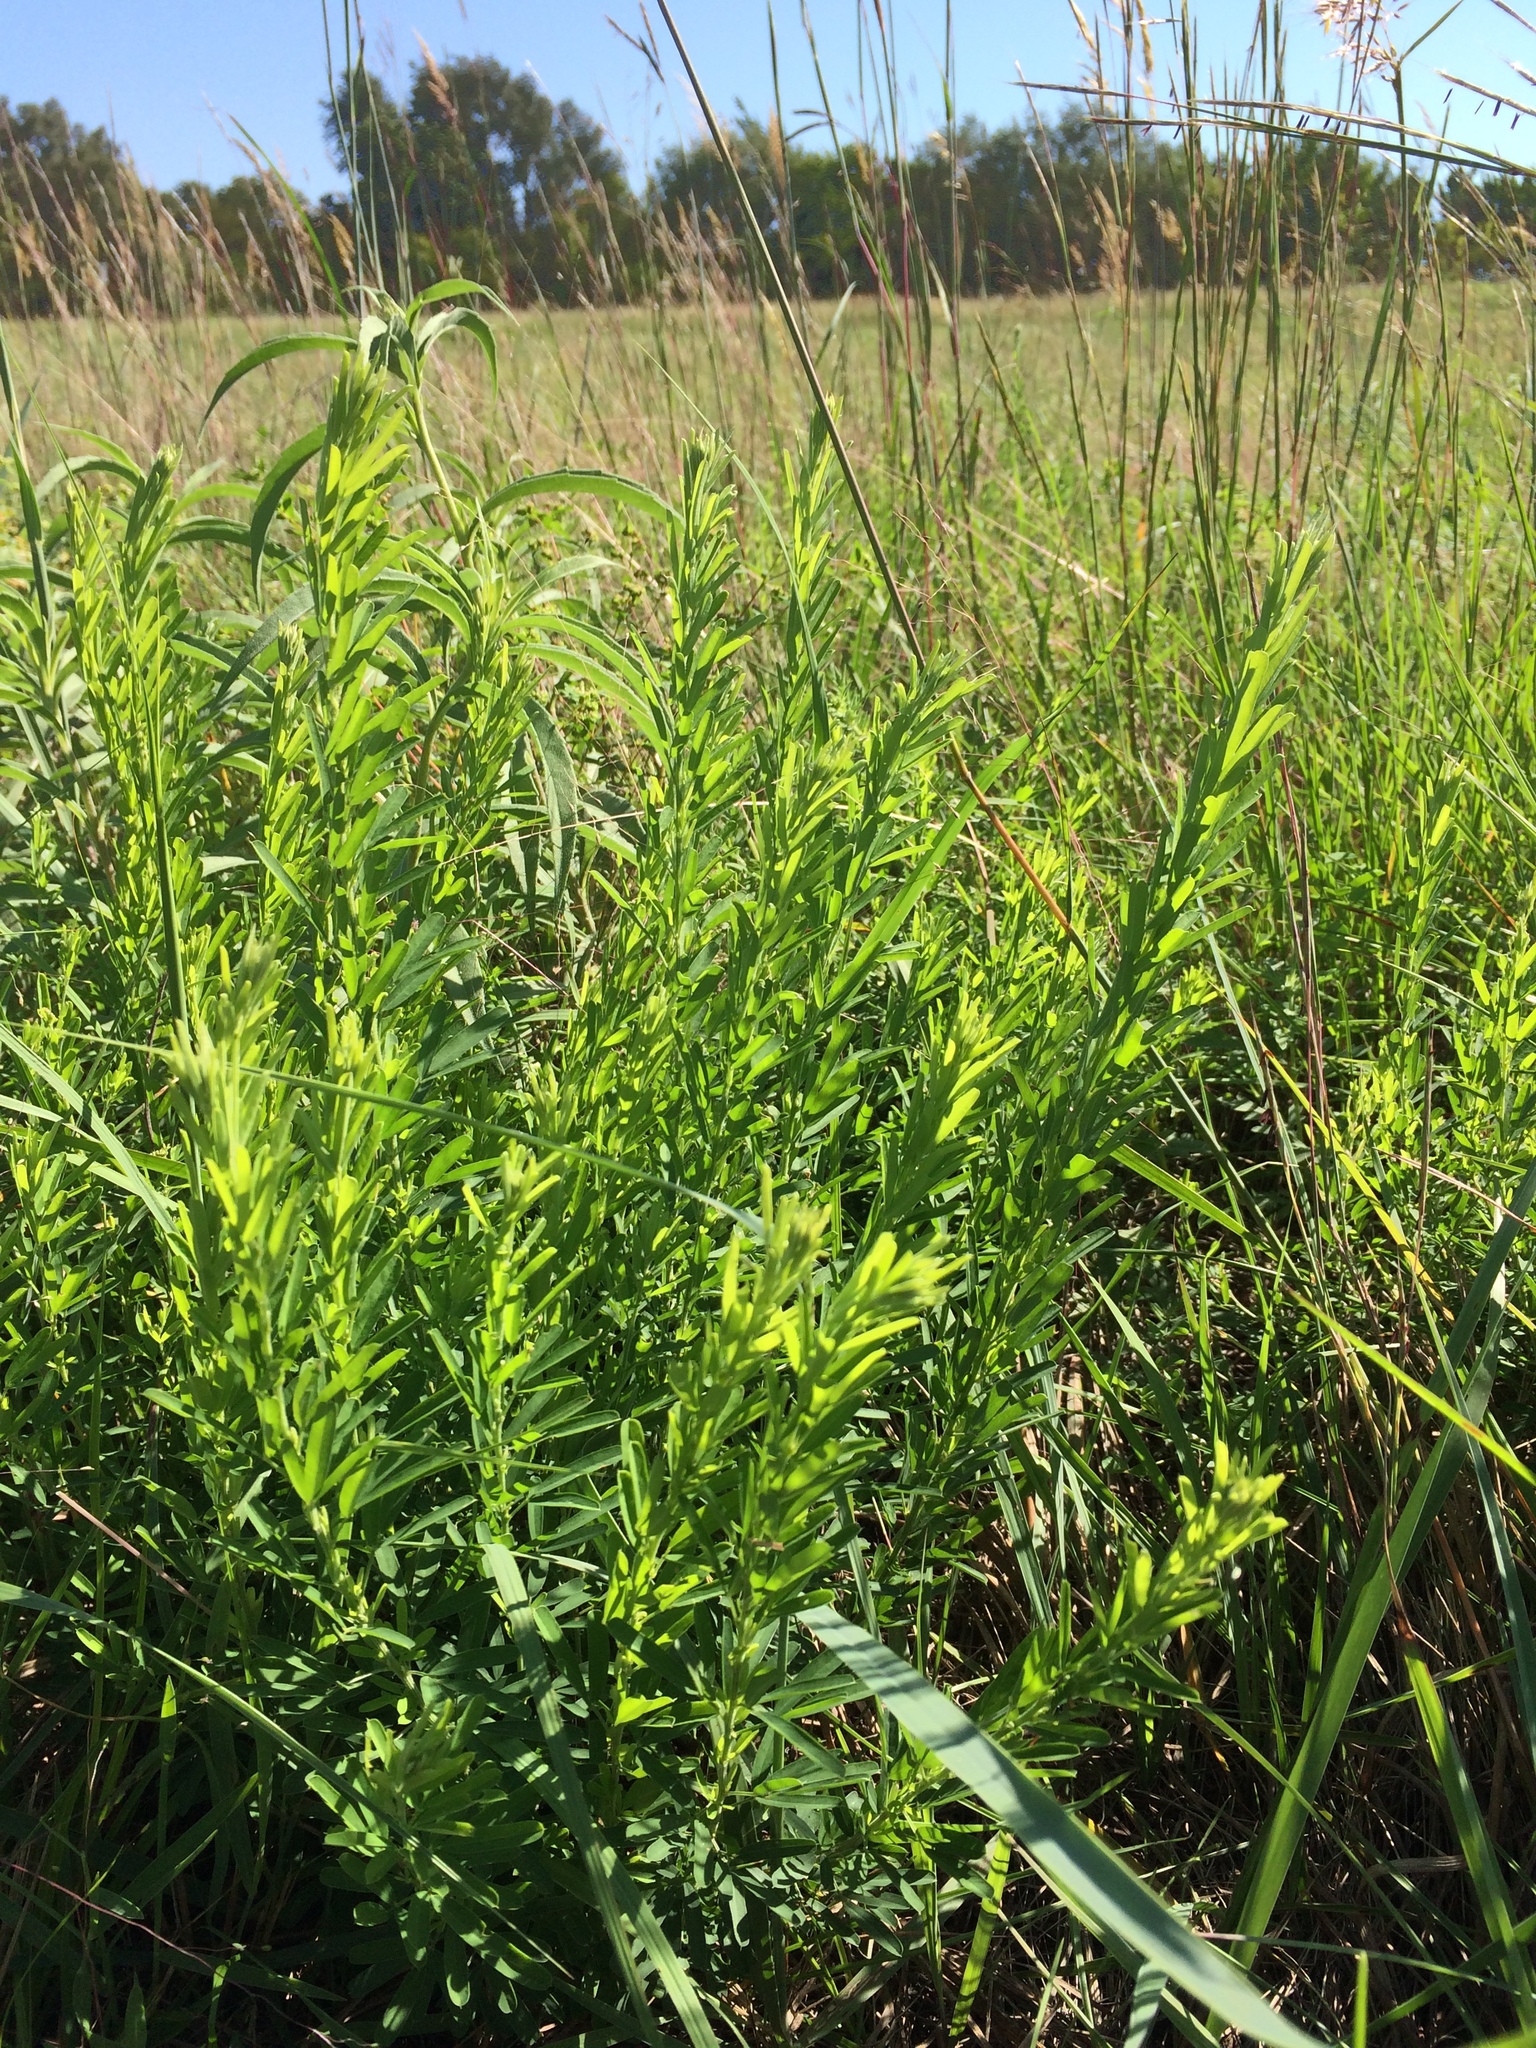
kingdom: Plantae
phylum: Tracheophyta
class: Magnoliopsida
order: Fabales
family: Fabaceae
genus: Lespedeza
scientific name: Lespedeza cuneata
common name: Chinese bush-clover
